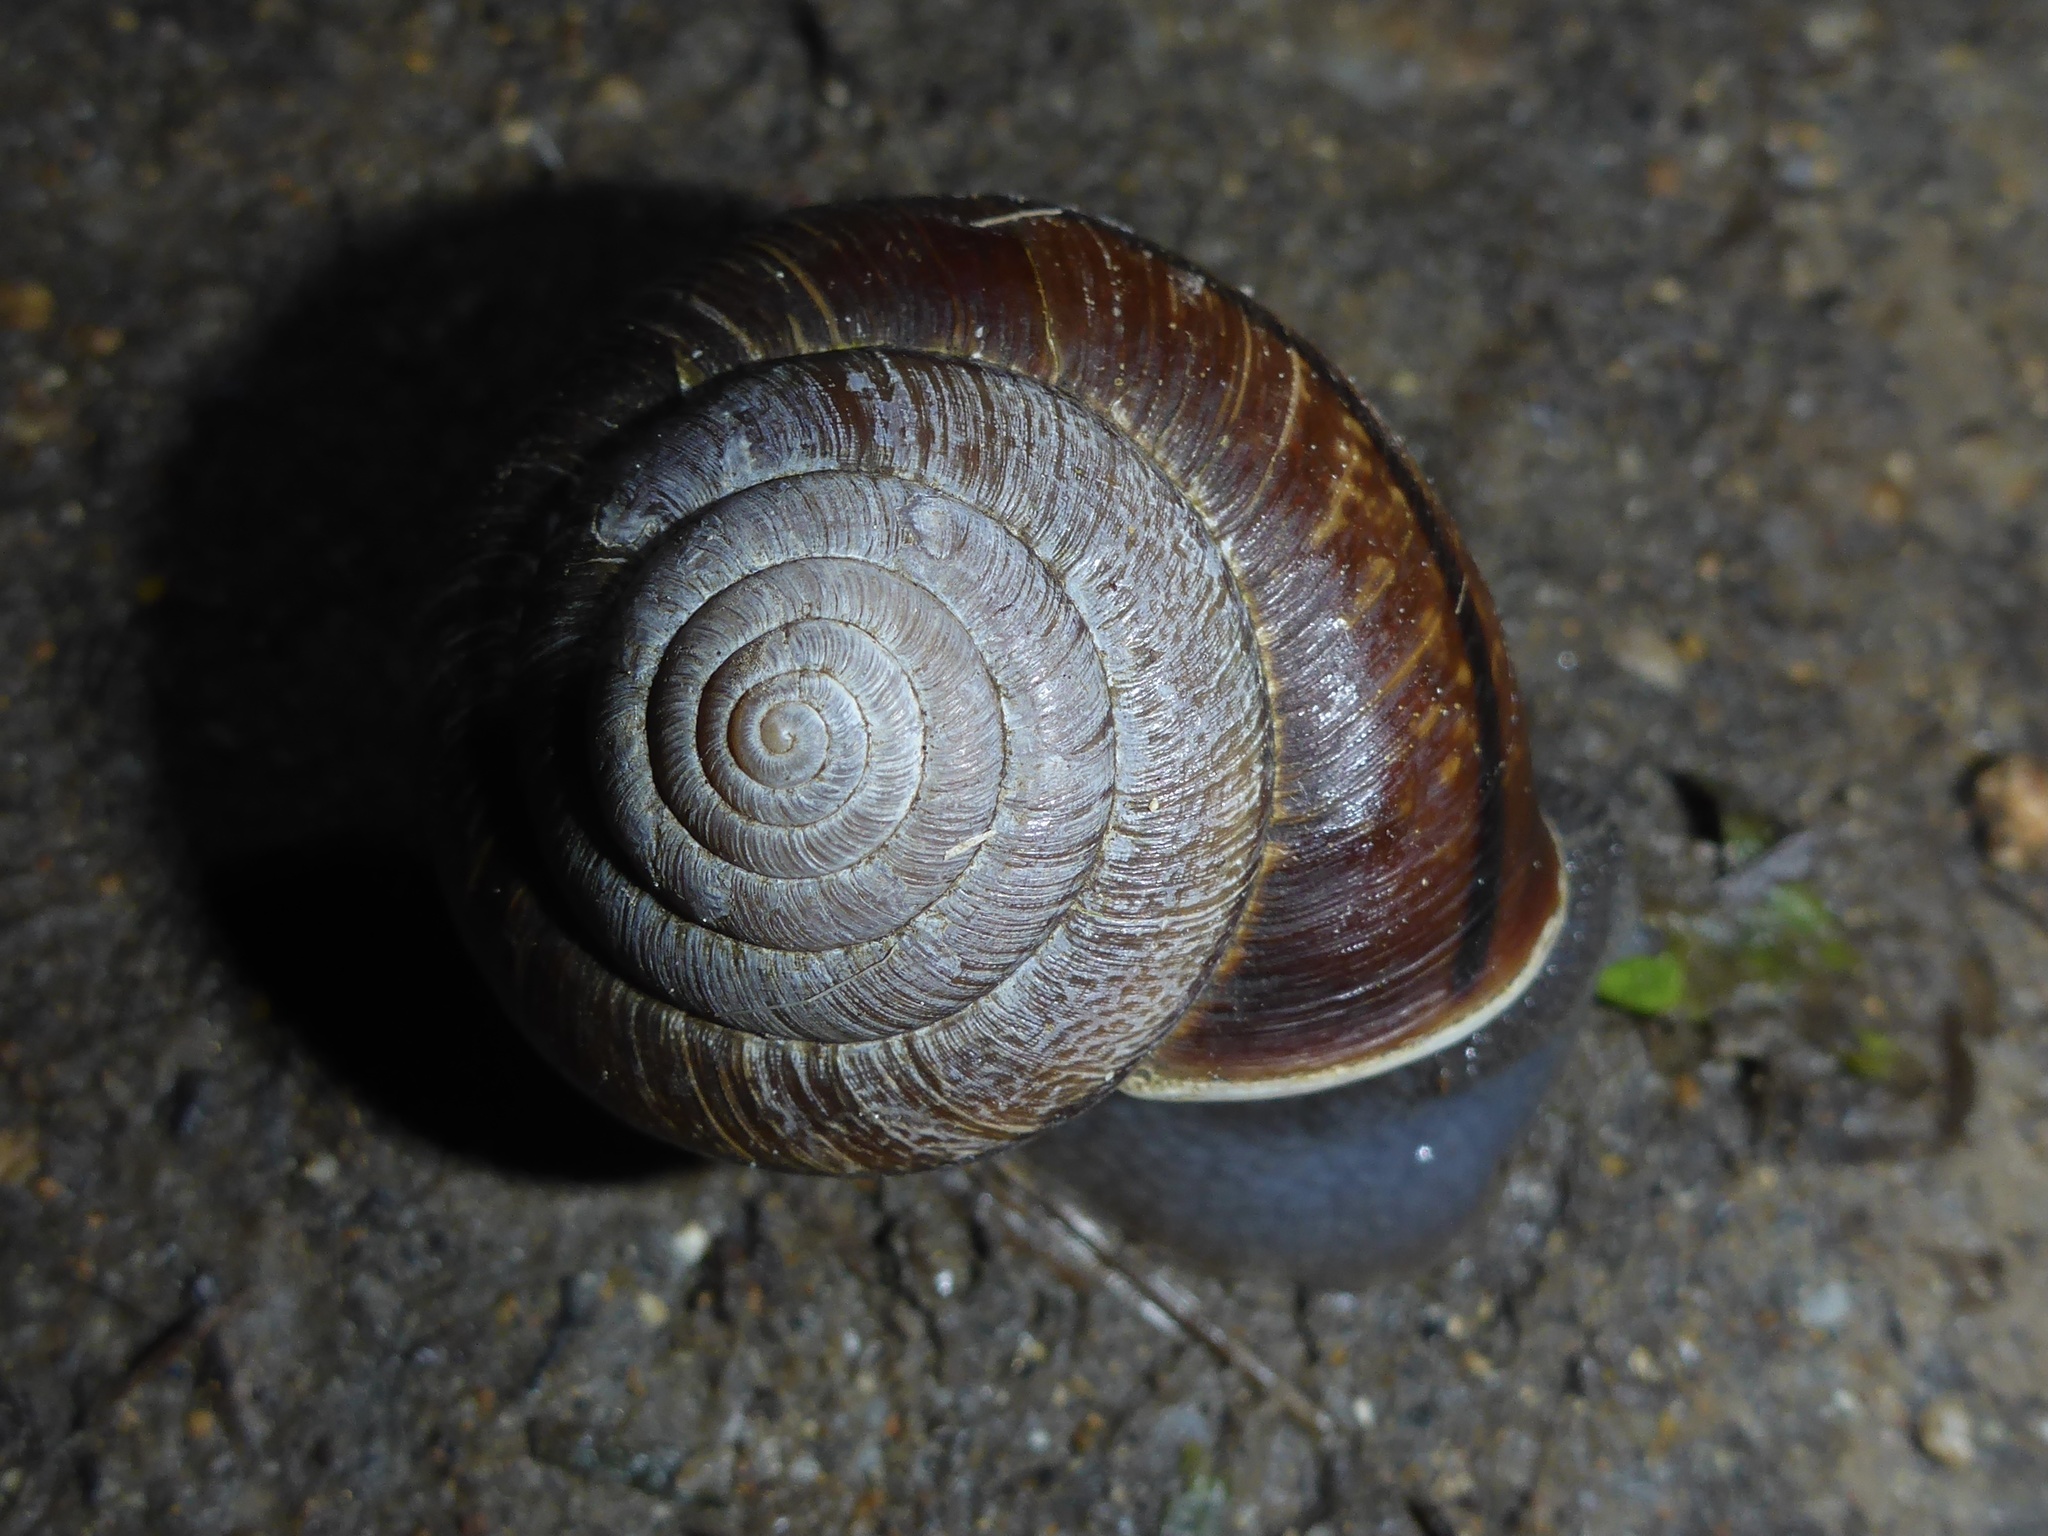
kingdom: Animalia
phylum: Mollusca
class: Gastropoda
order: Stylommatophora
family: Xanthonychidae
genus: Helminthoglypta
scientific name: Helminthoglypta arrosa
